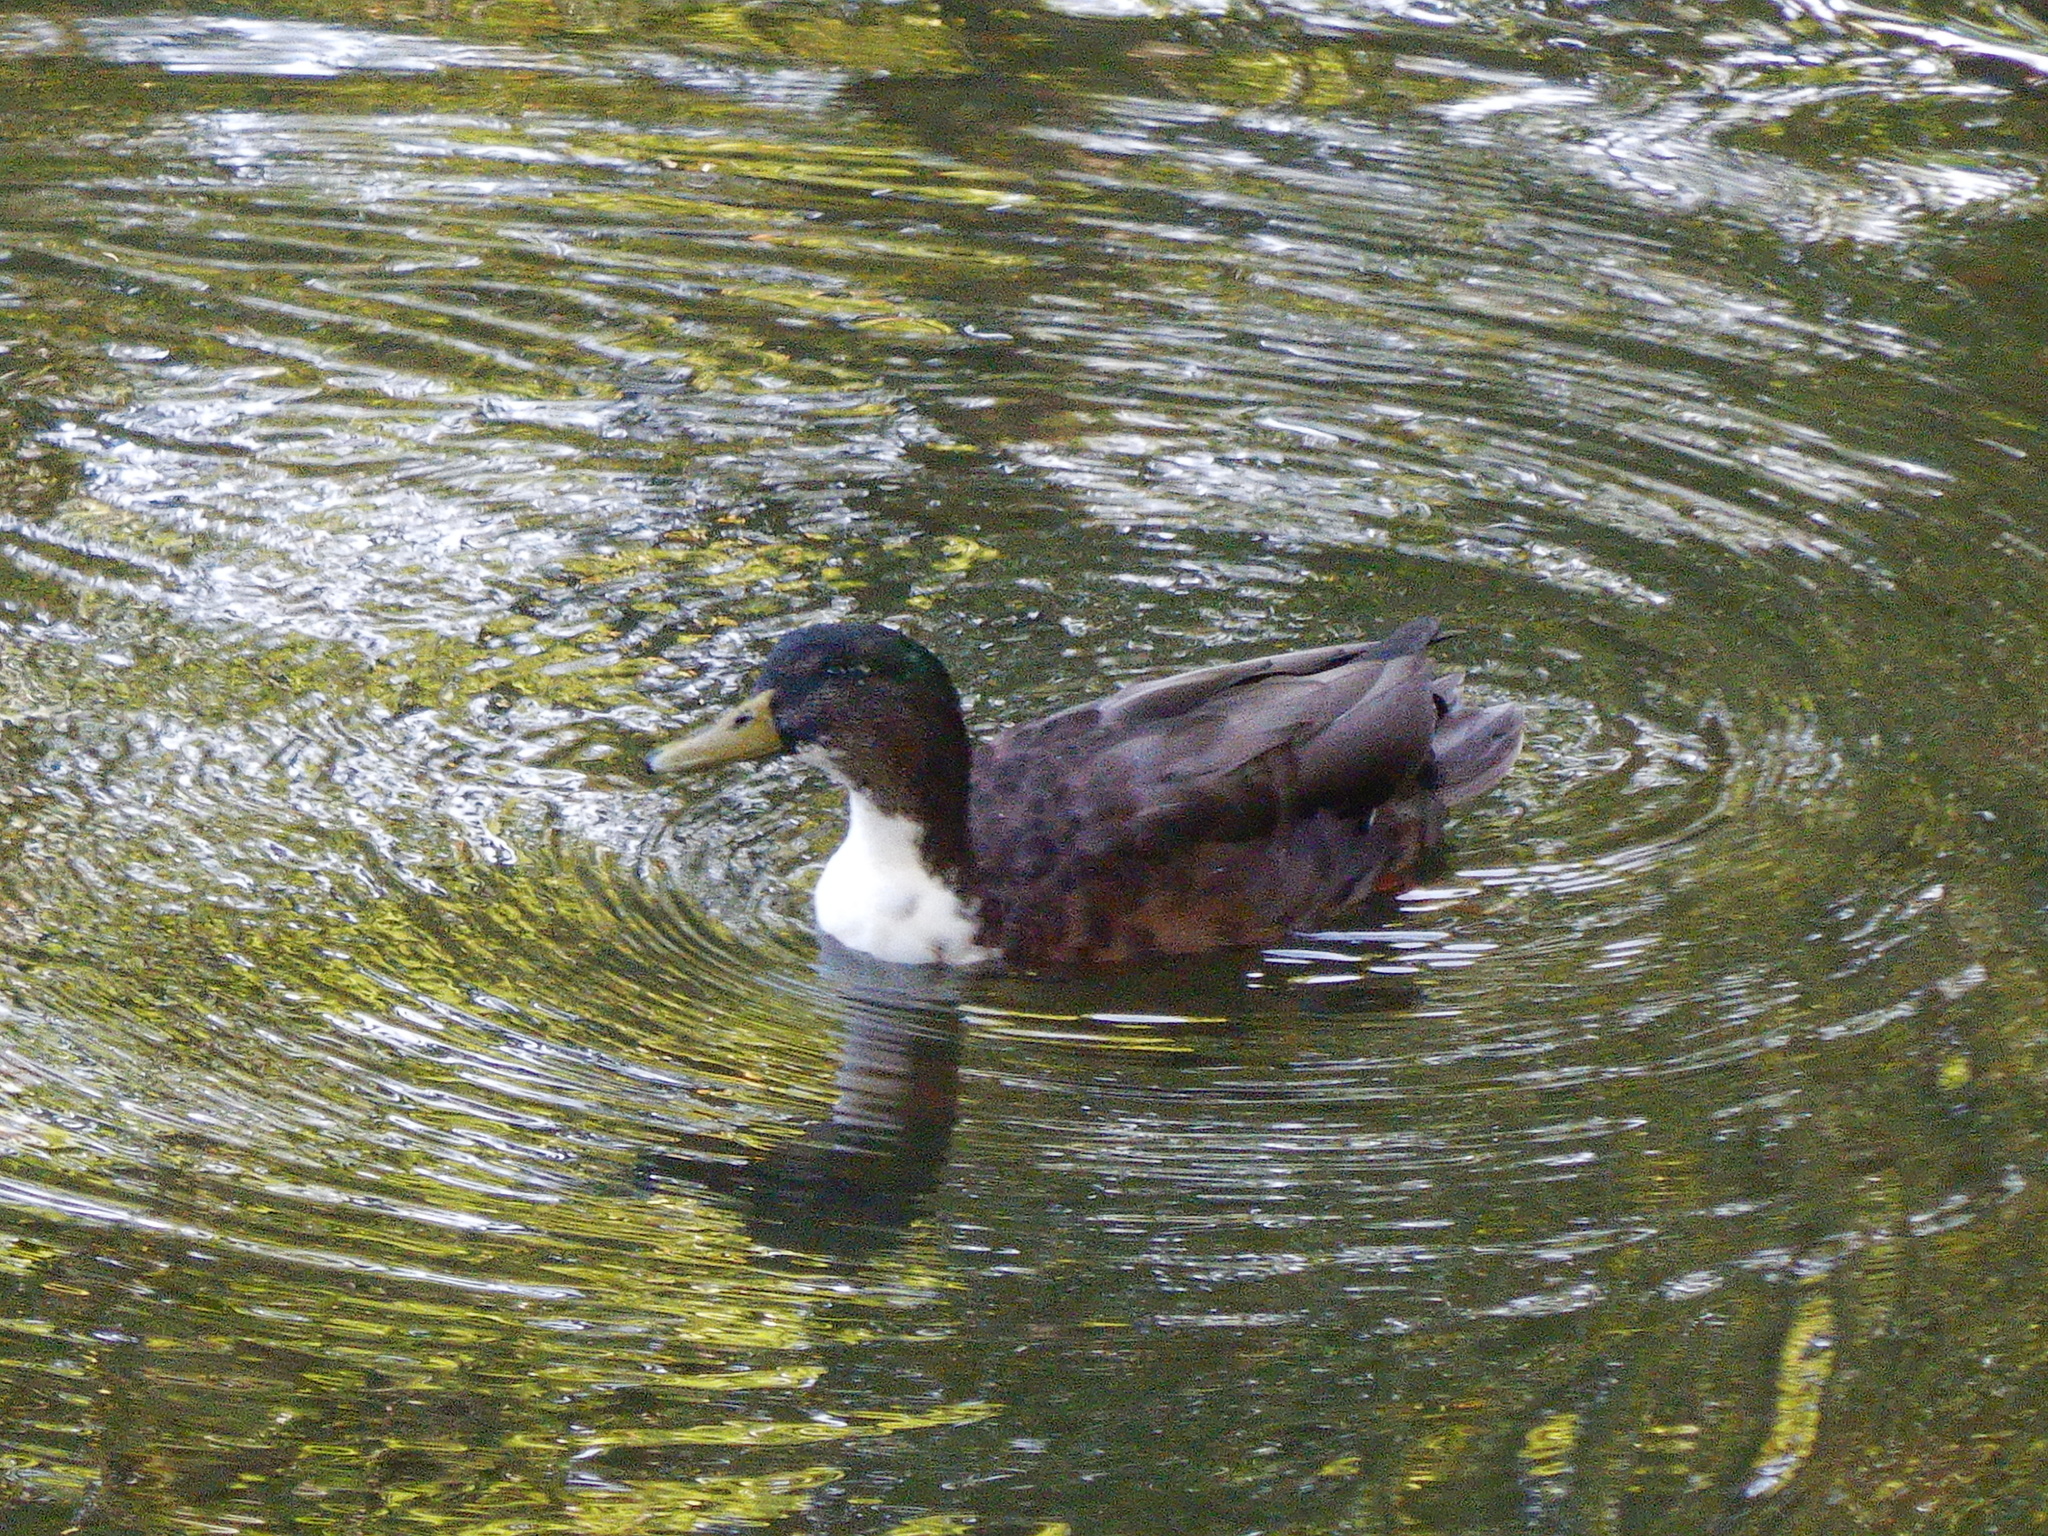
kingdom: Animalia
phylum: Chordata
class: Aves
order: Anseriformes
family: Anatidae
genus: Anas
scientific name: Anas platyrhynchos
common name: Mallard
